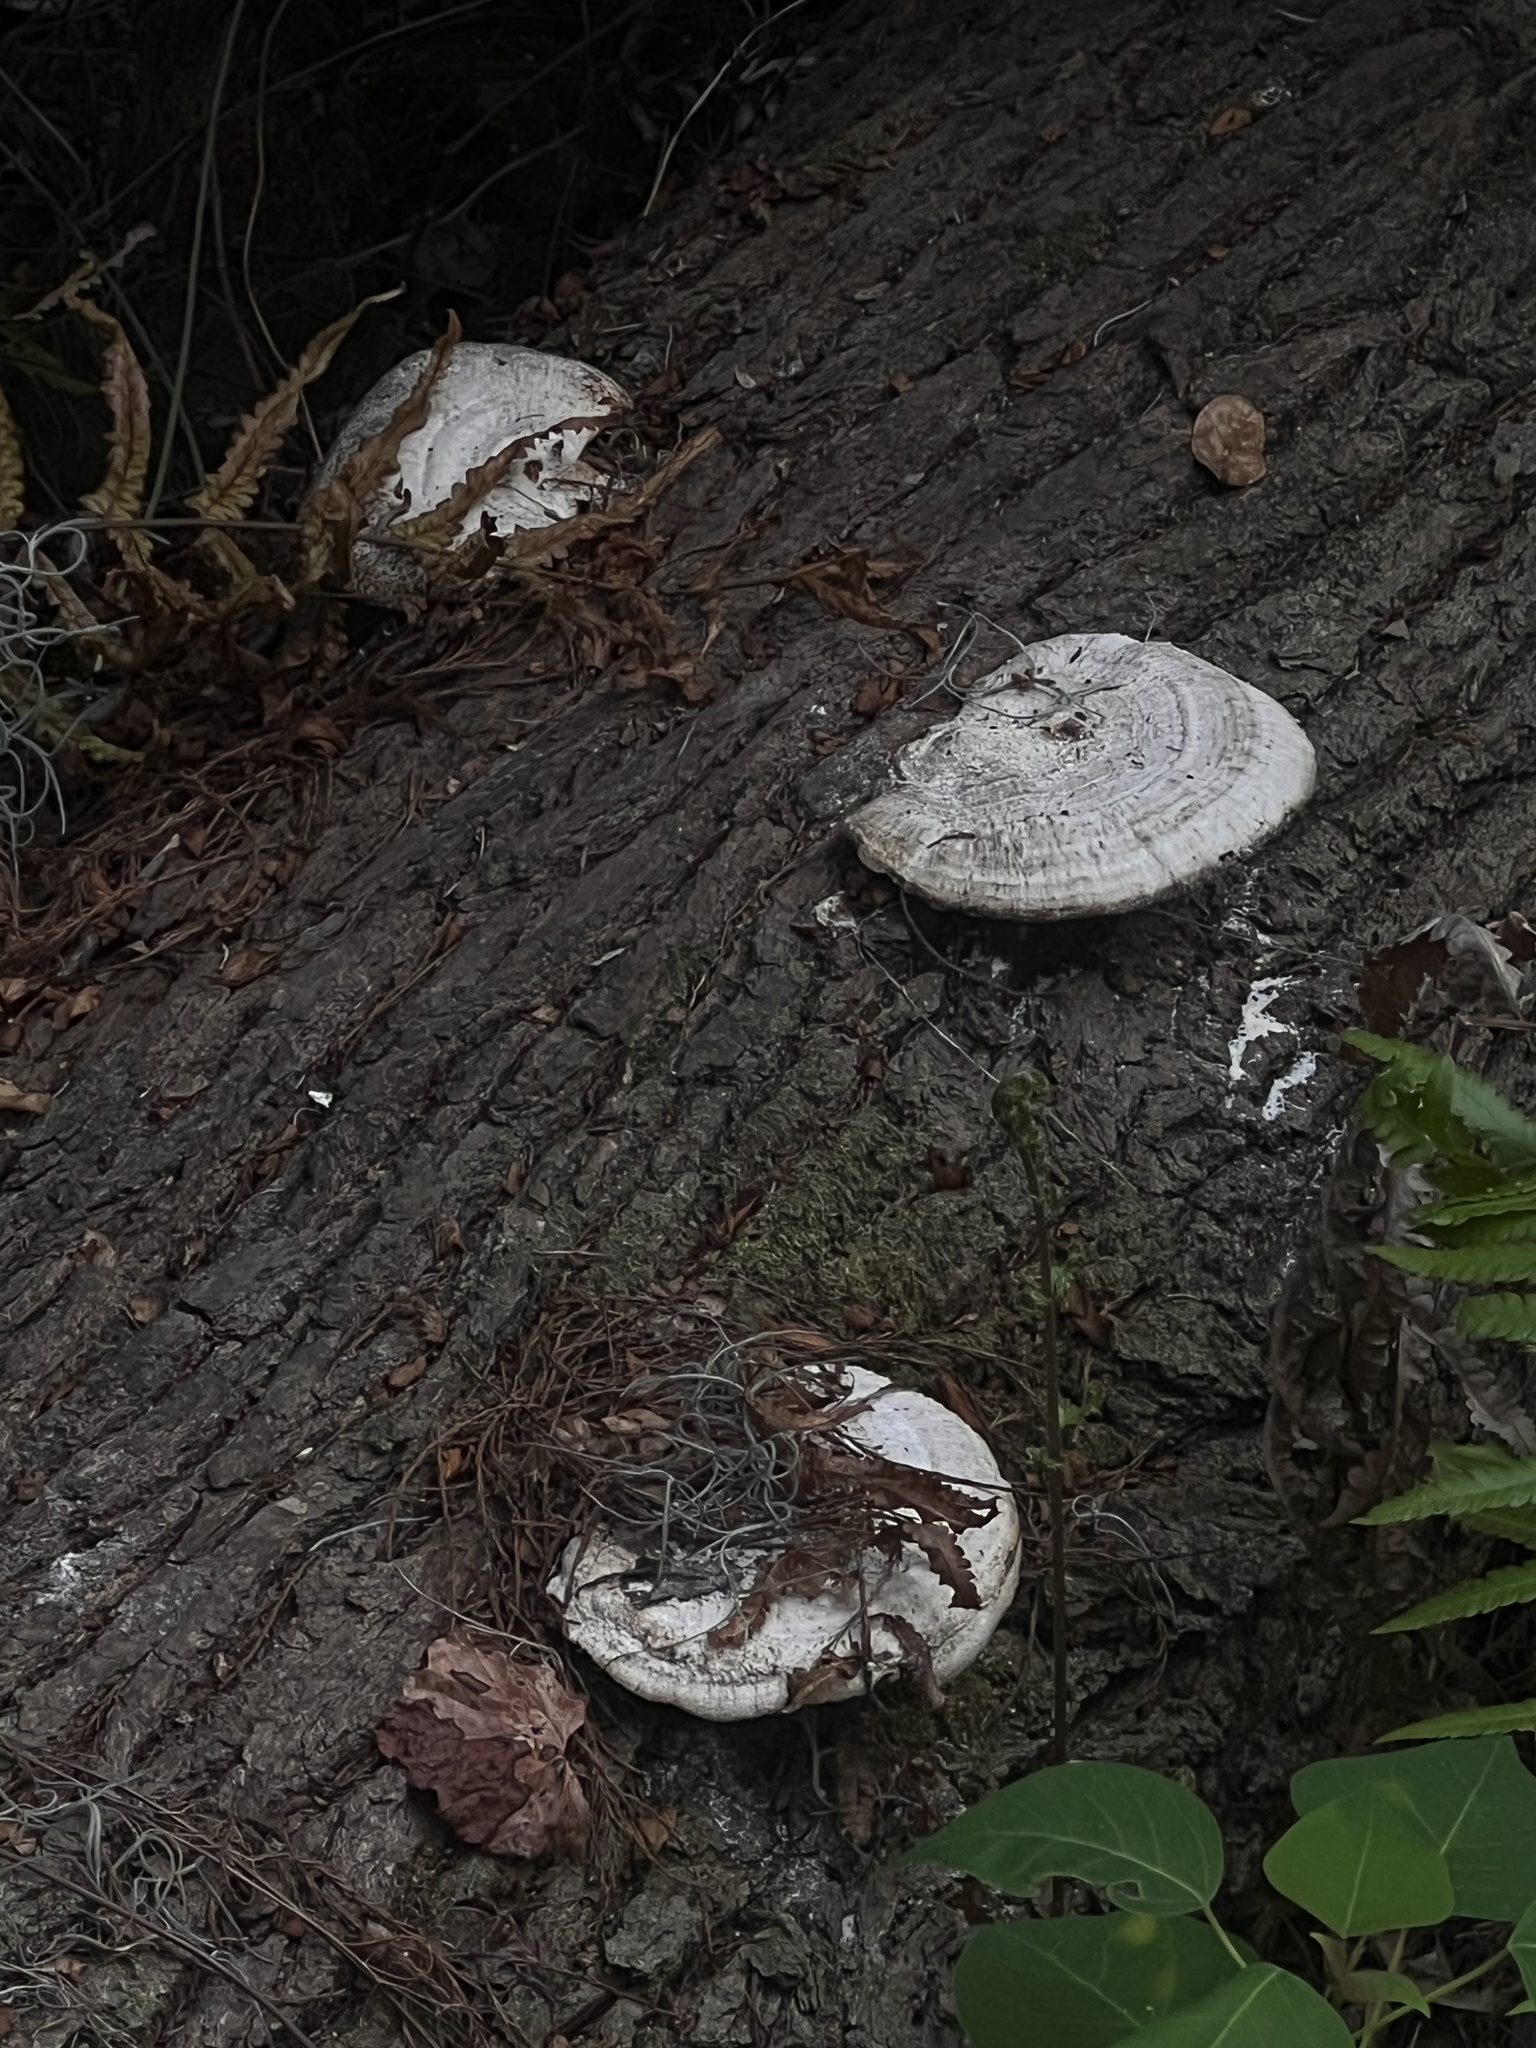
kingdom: Fungi
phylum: Basidiomycota
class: Agaricomycetes
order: Polyporales
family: Polyporaceae
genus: Trametes
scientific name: Trametes lactinea
